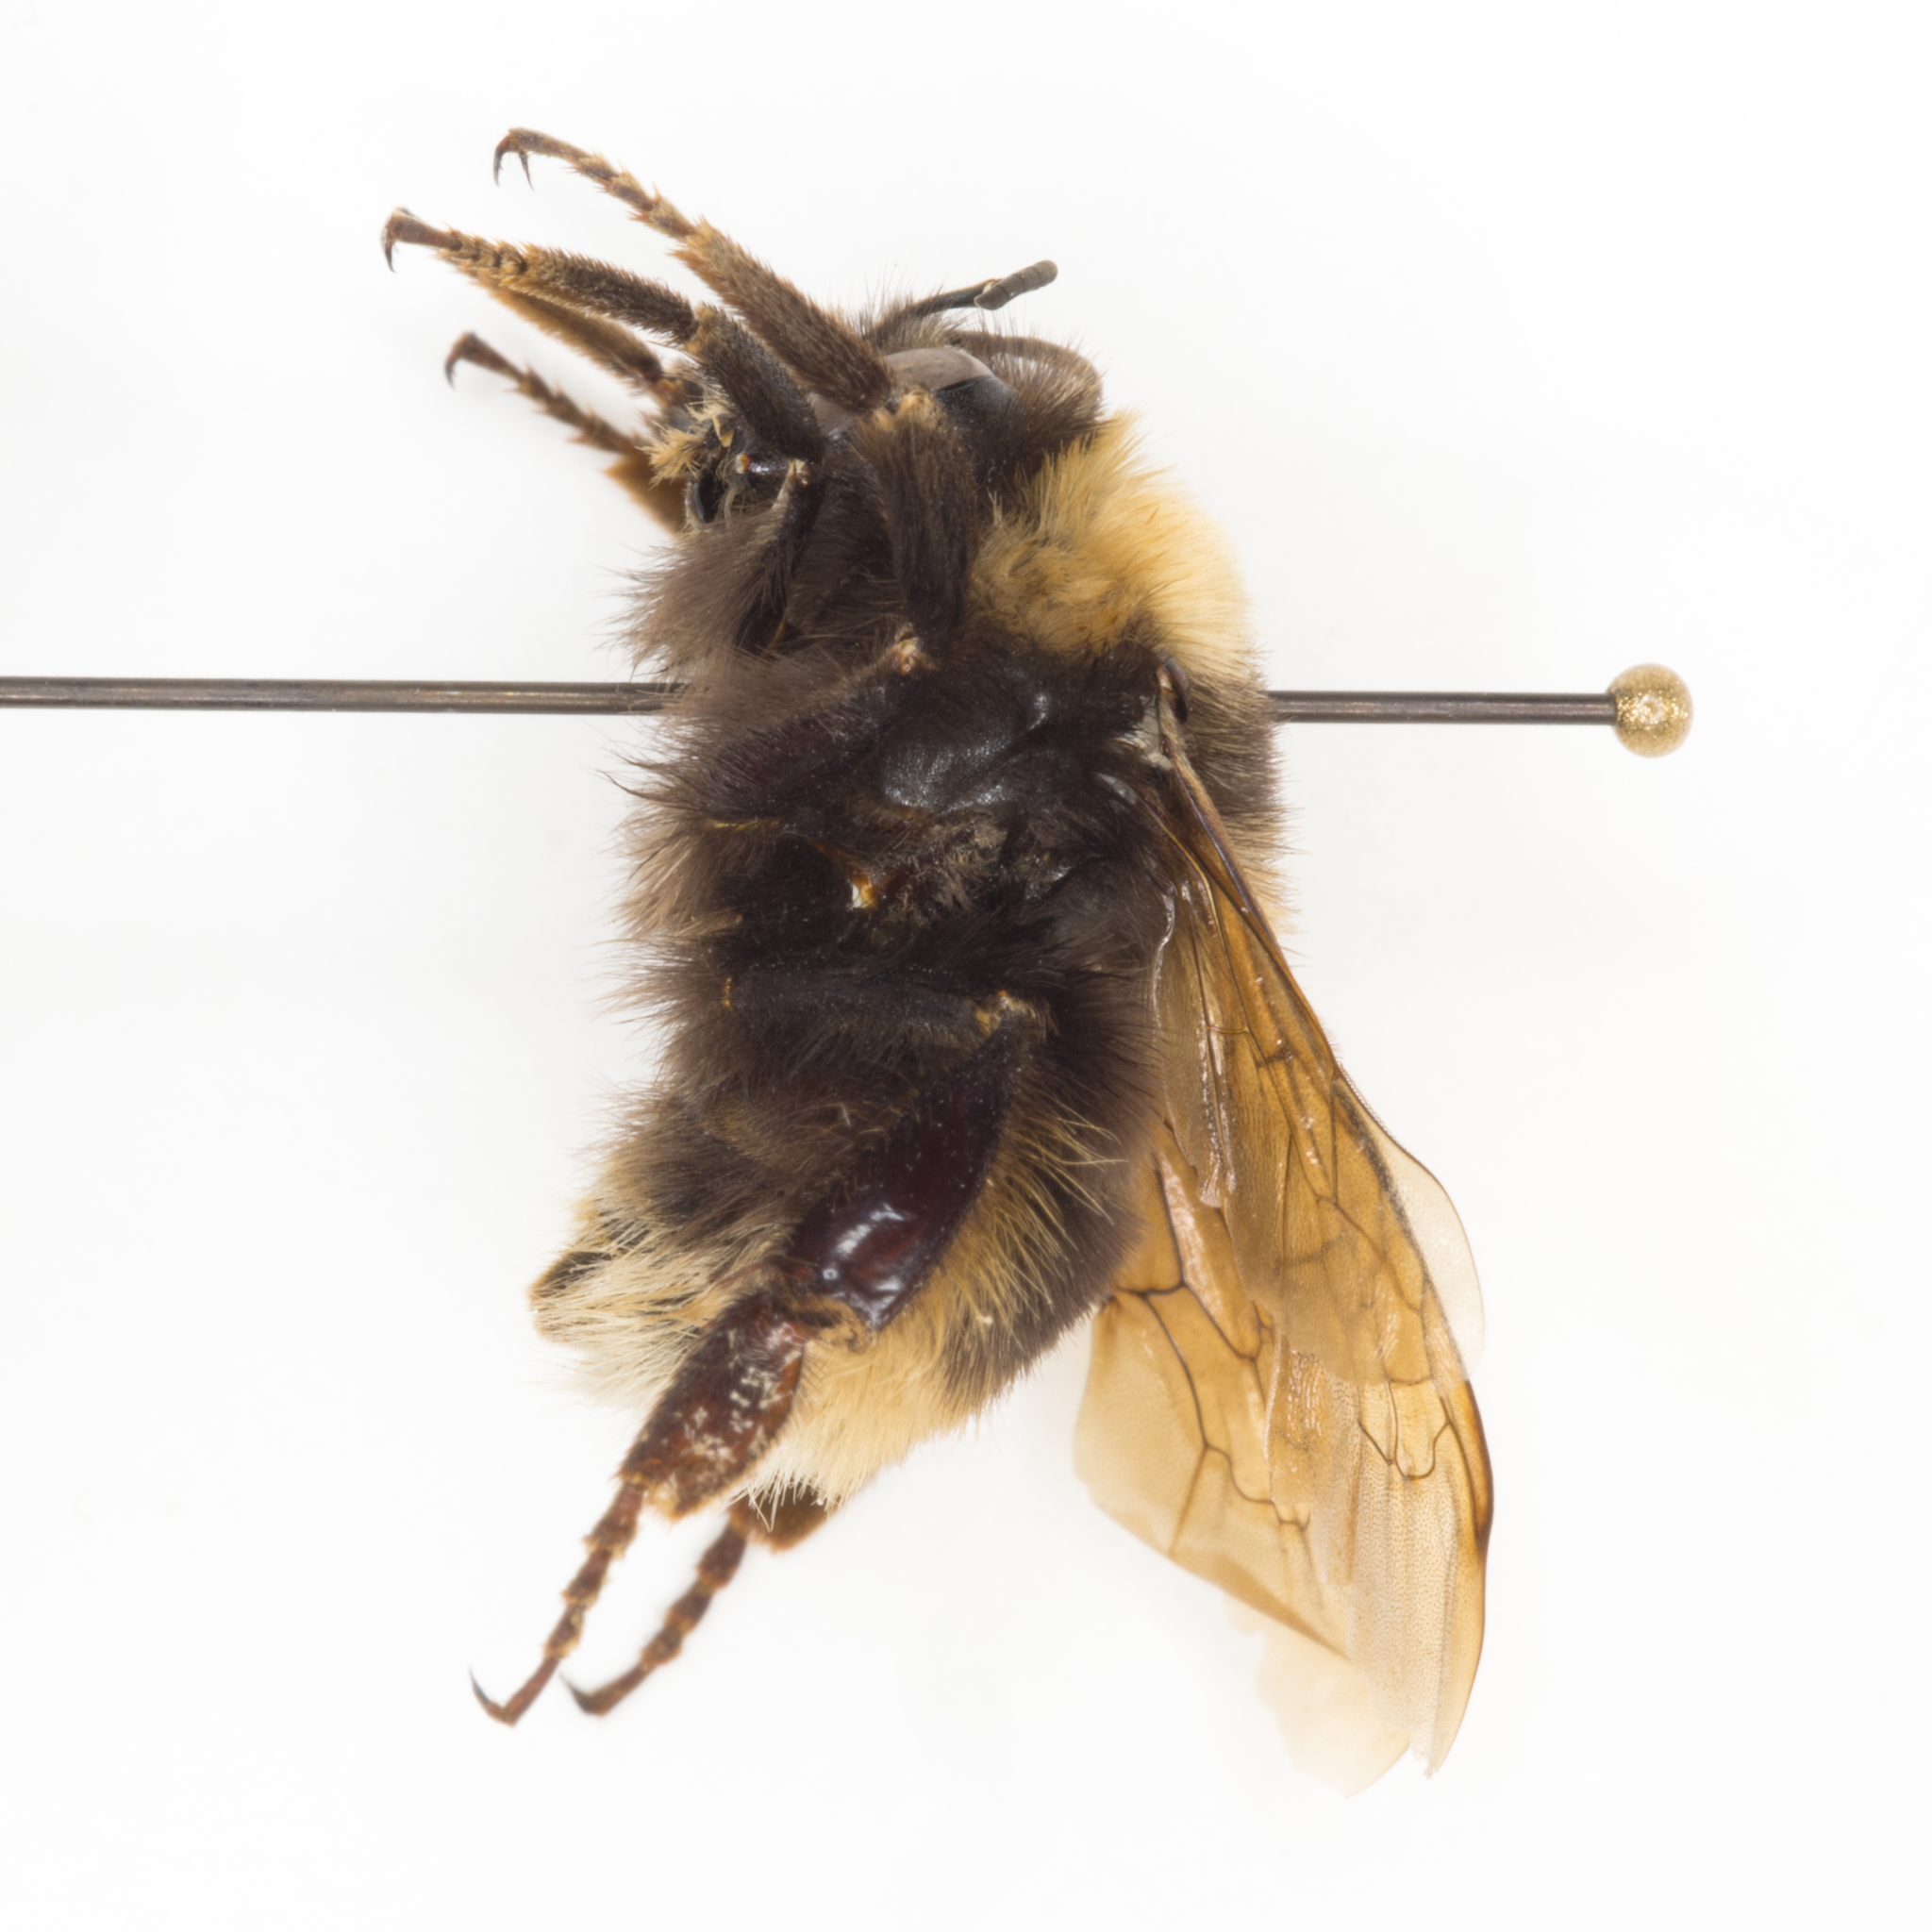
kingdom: Animalia
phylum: Arthropoda
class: Insecta
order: Hymenoptera
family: Apidae
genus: Bombus
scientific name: Bombus occidentalis
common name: Western bumble bee
